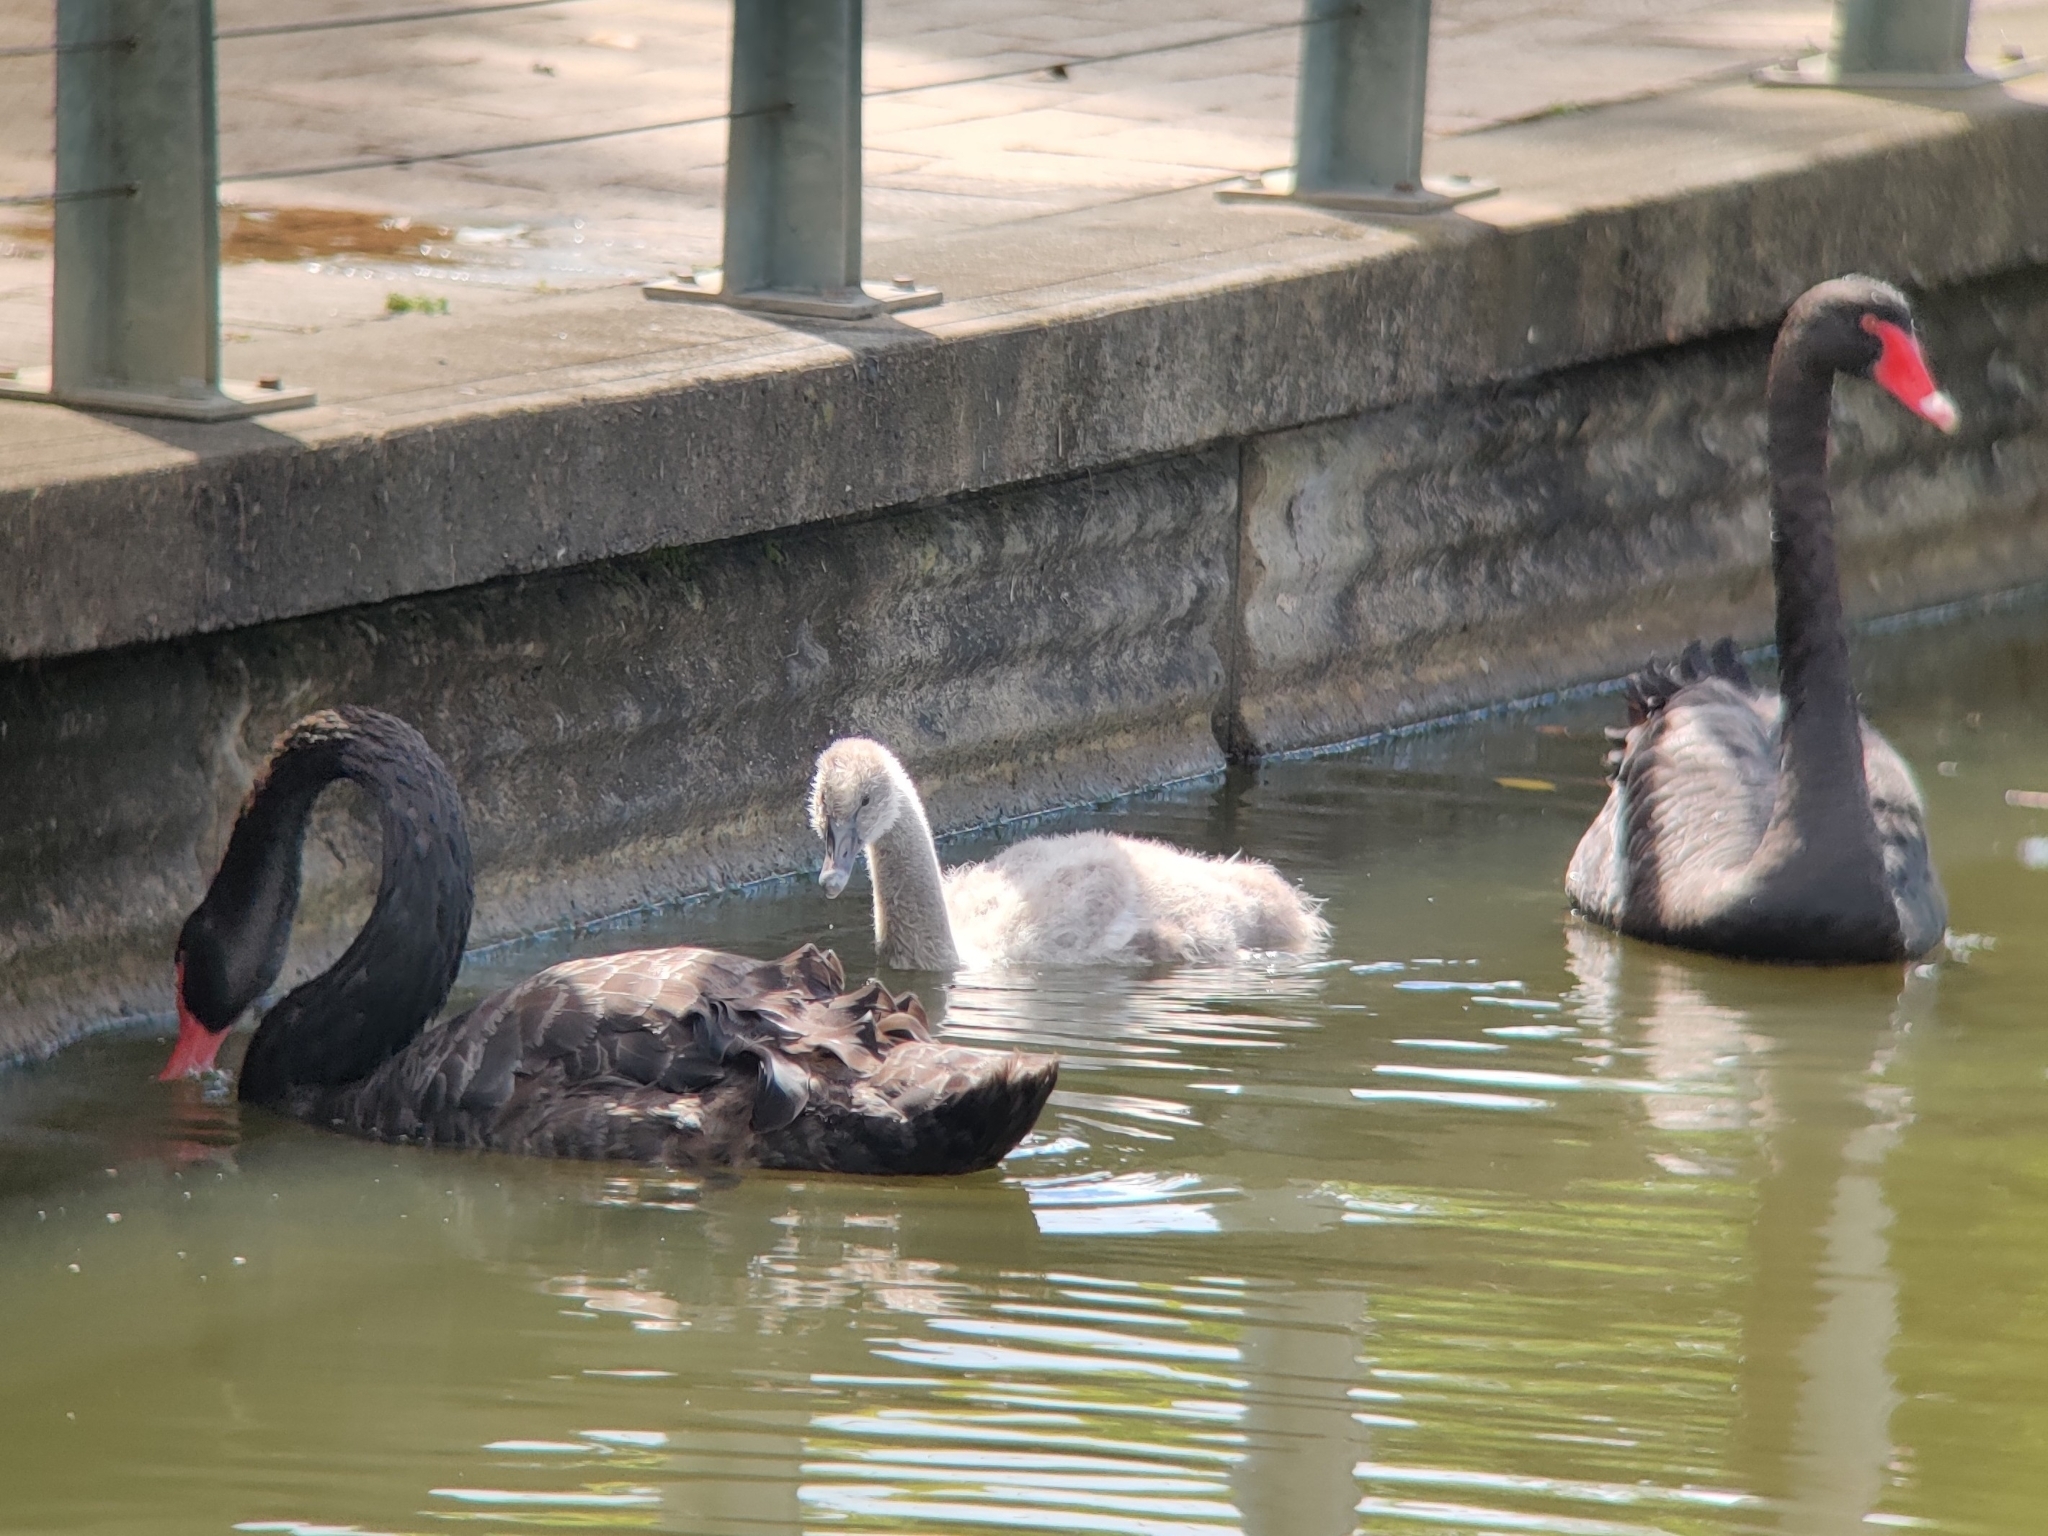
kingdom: Animalia
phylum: Chordata
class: Aves
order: Anseriformes
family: Anatidae
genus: Cygnus
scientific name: Cygnus atratus
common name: Black swan
